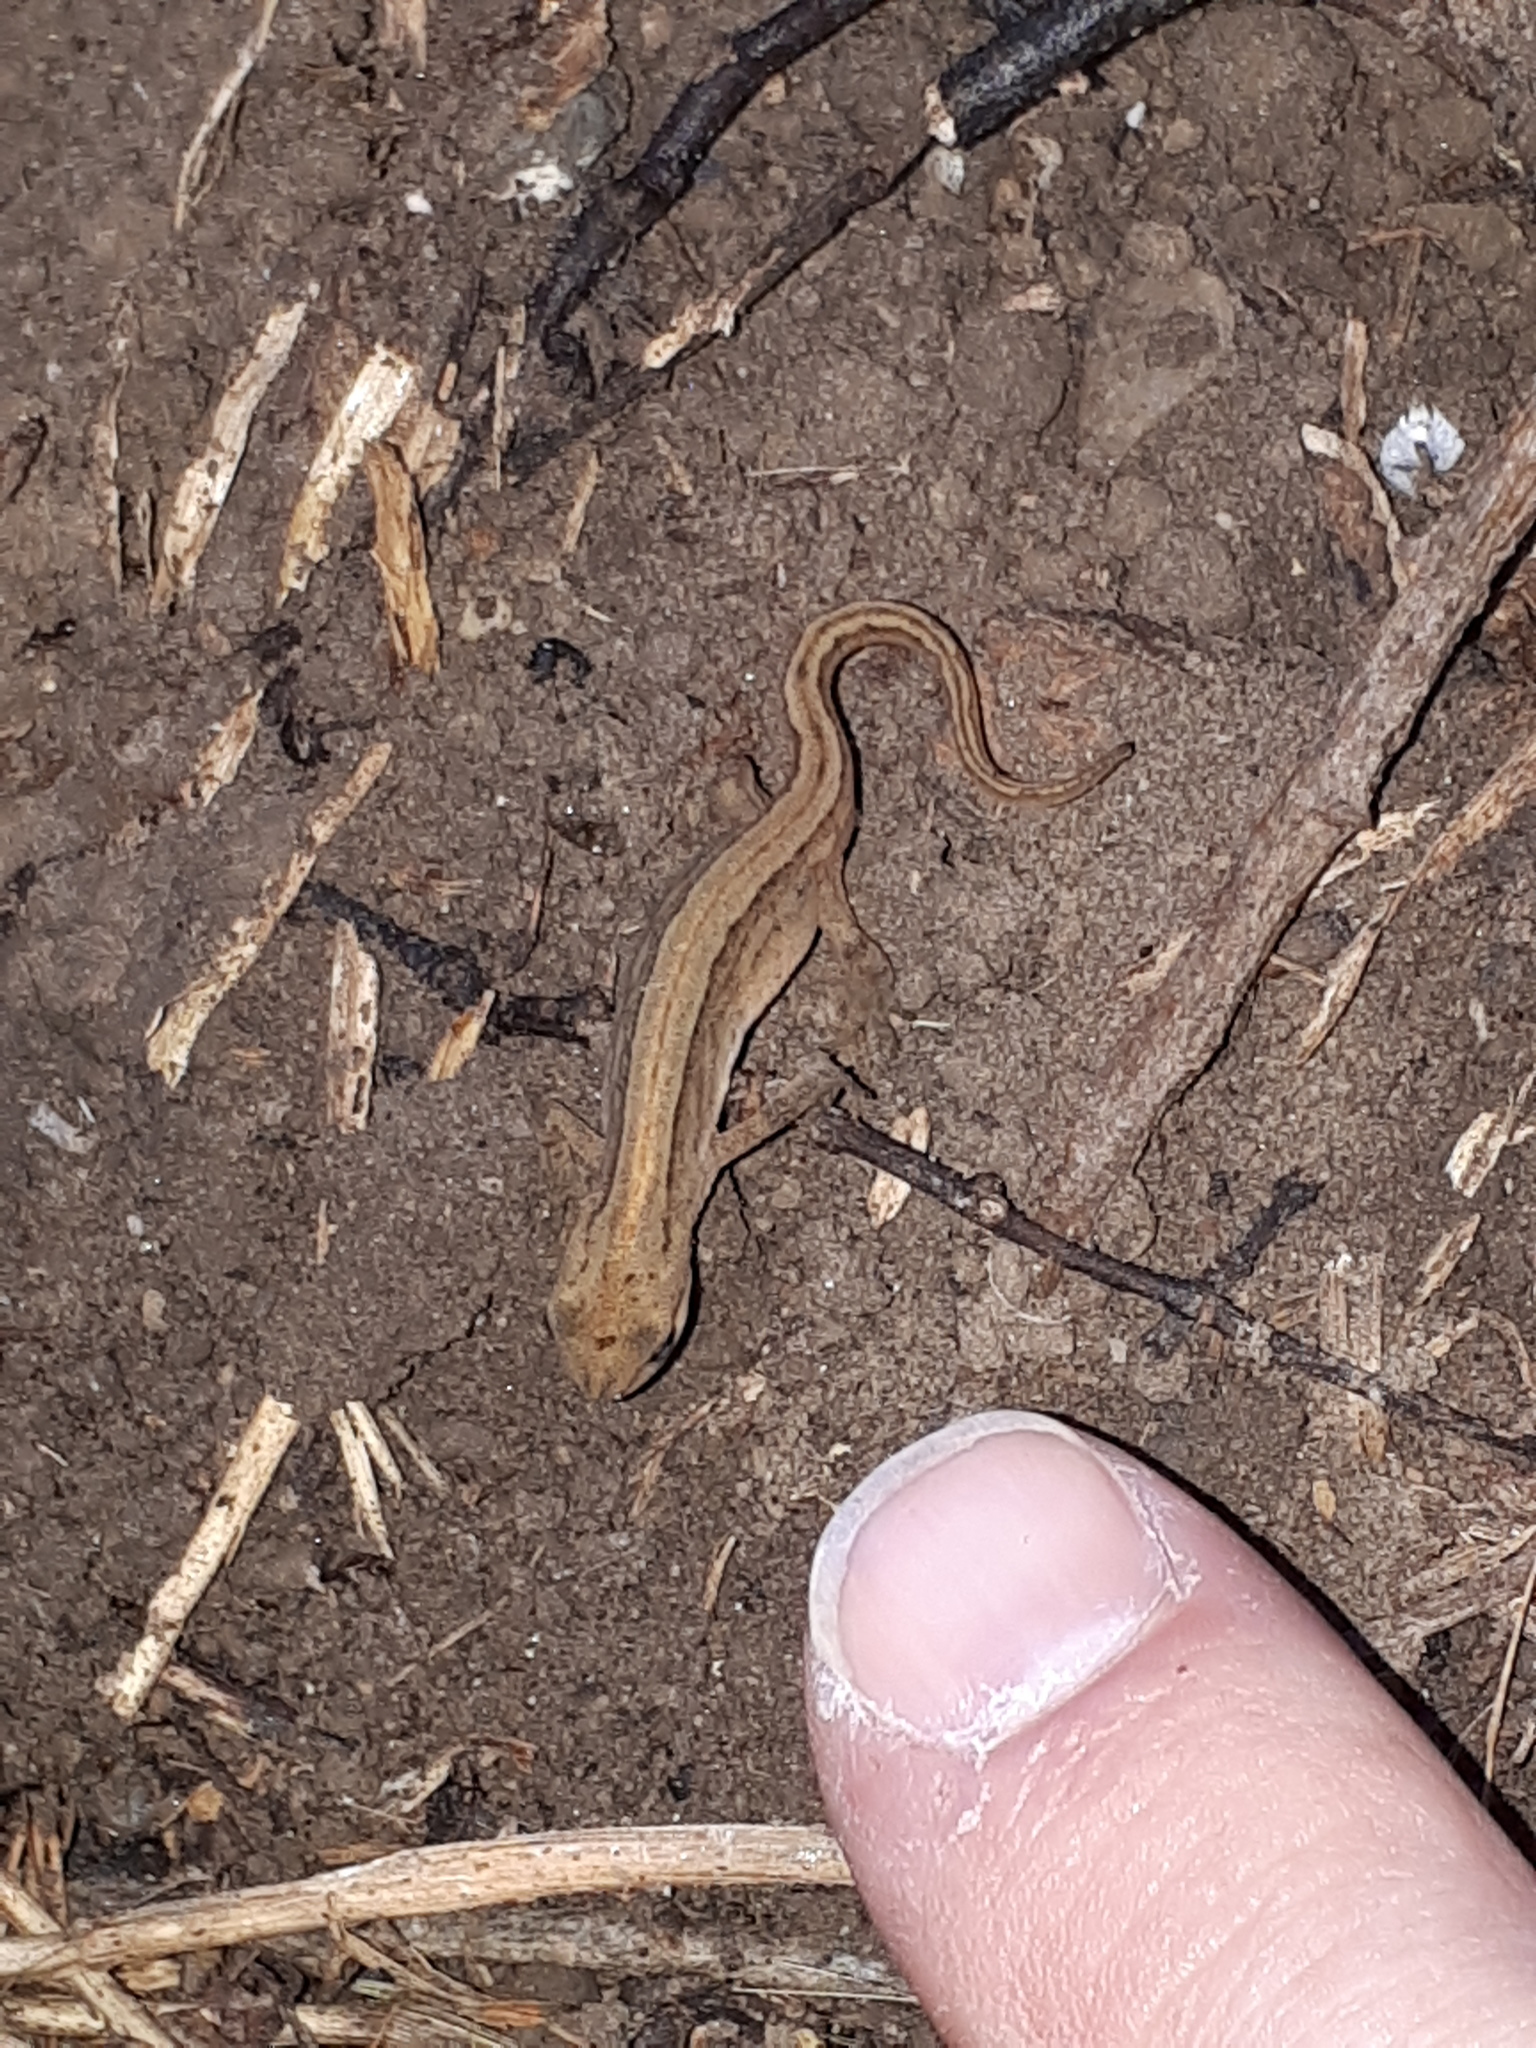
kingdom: Animalia
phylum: Chordata
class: Amphibia
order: Caudata
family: Salamandridae
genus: Lissotriton
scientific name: Lissotriton vulgaris
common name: Smooth newt
